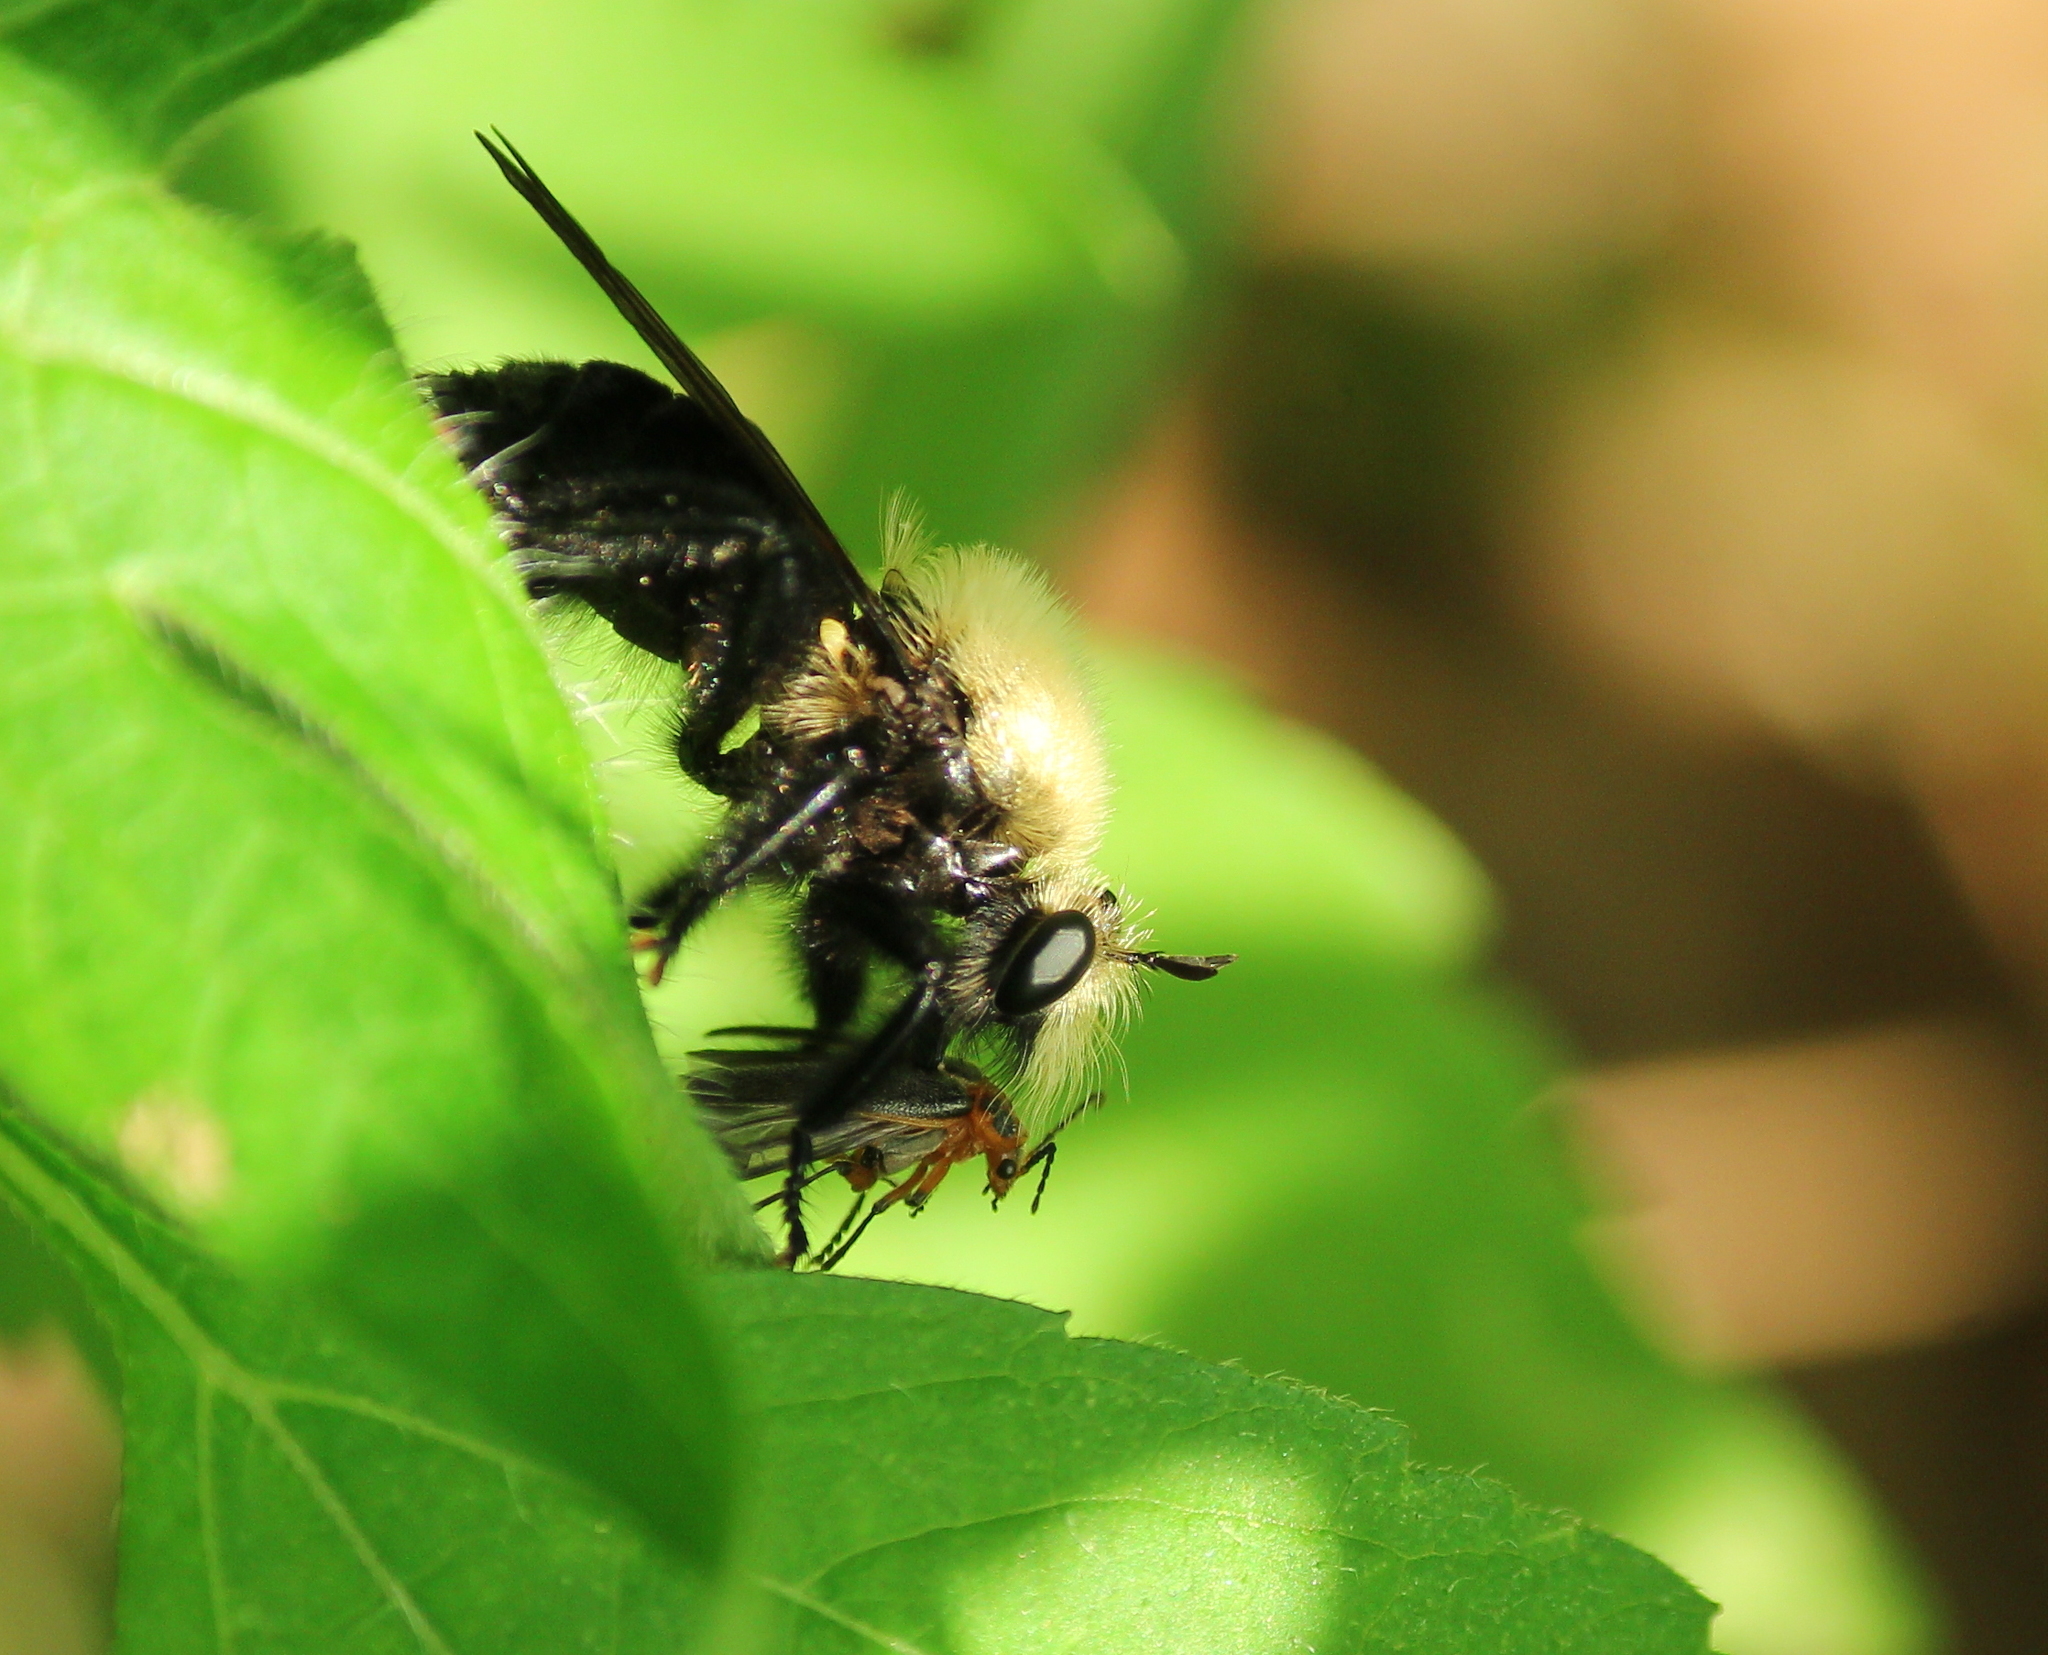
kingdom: Animalia
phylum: Arthropoda
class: Insecta
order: Diptera
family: Asilidae
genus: Laphria
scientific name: Laphria flavicollis
